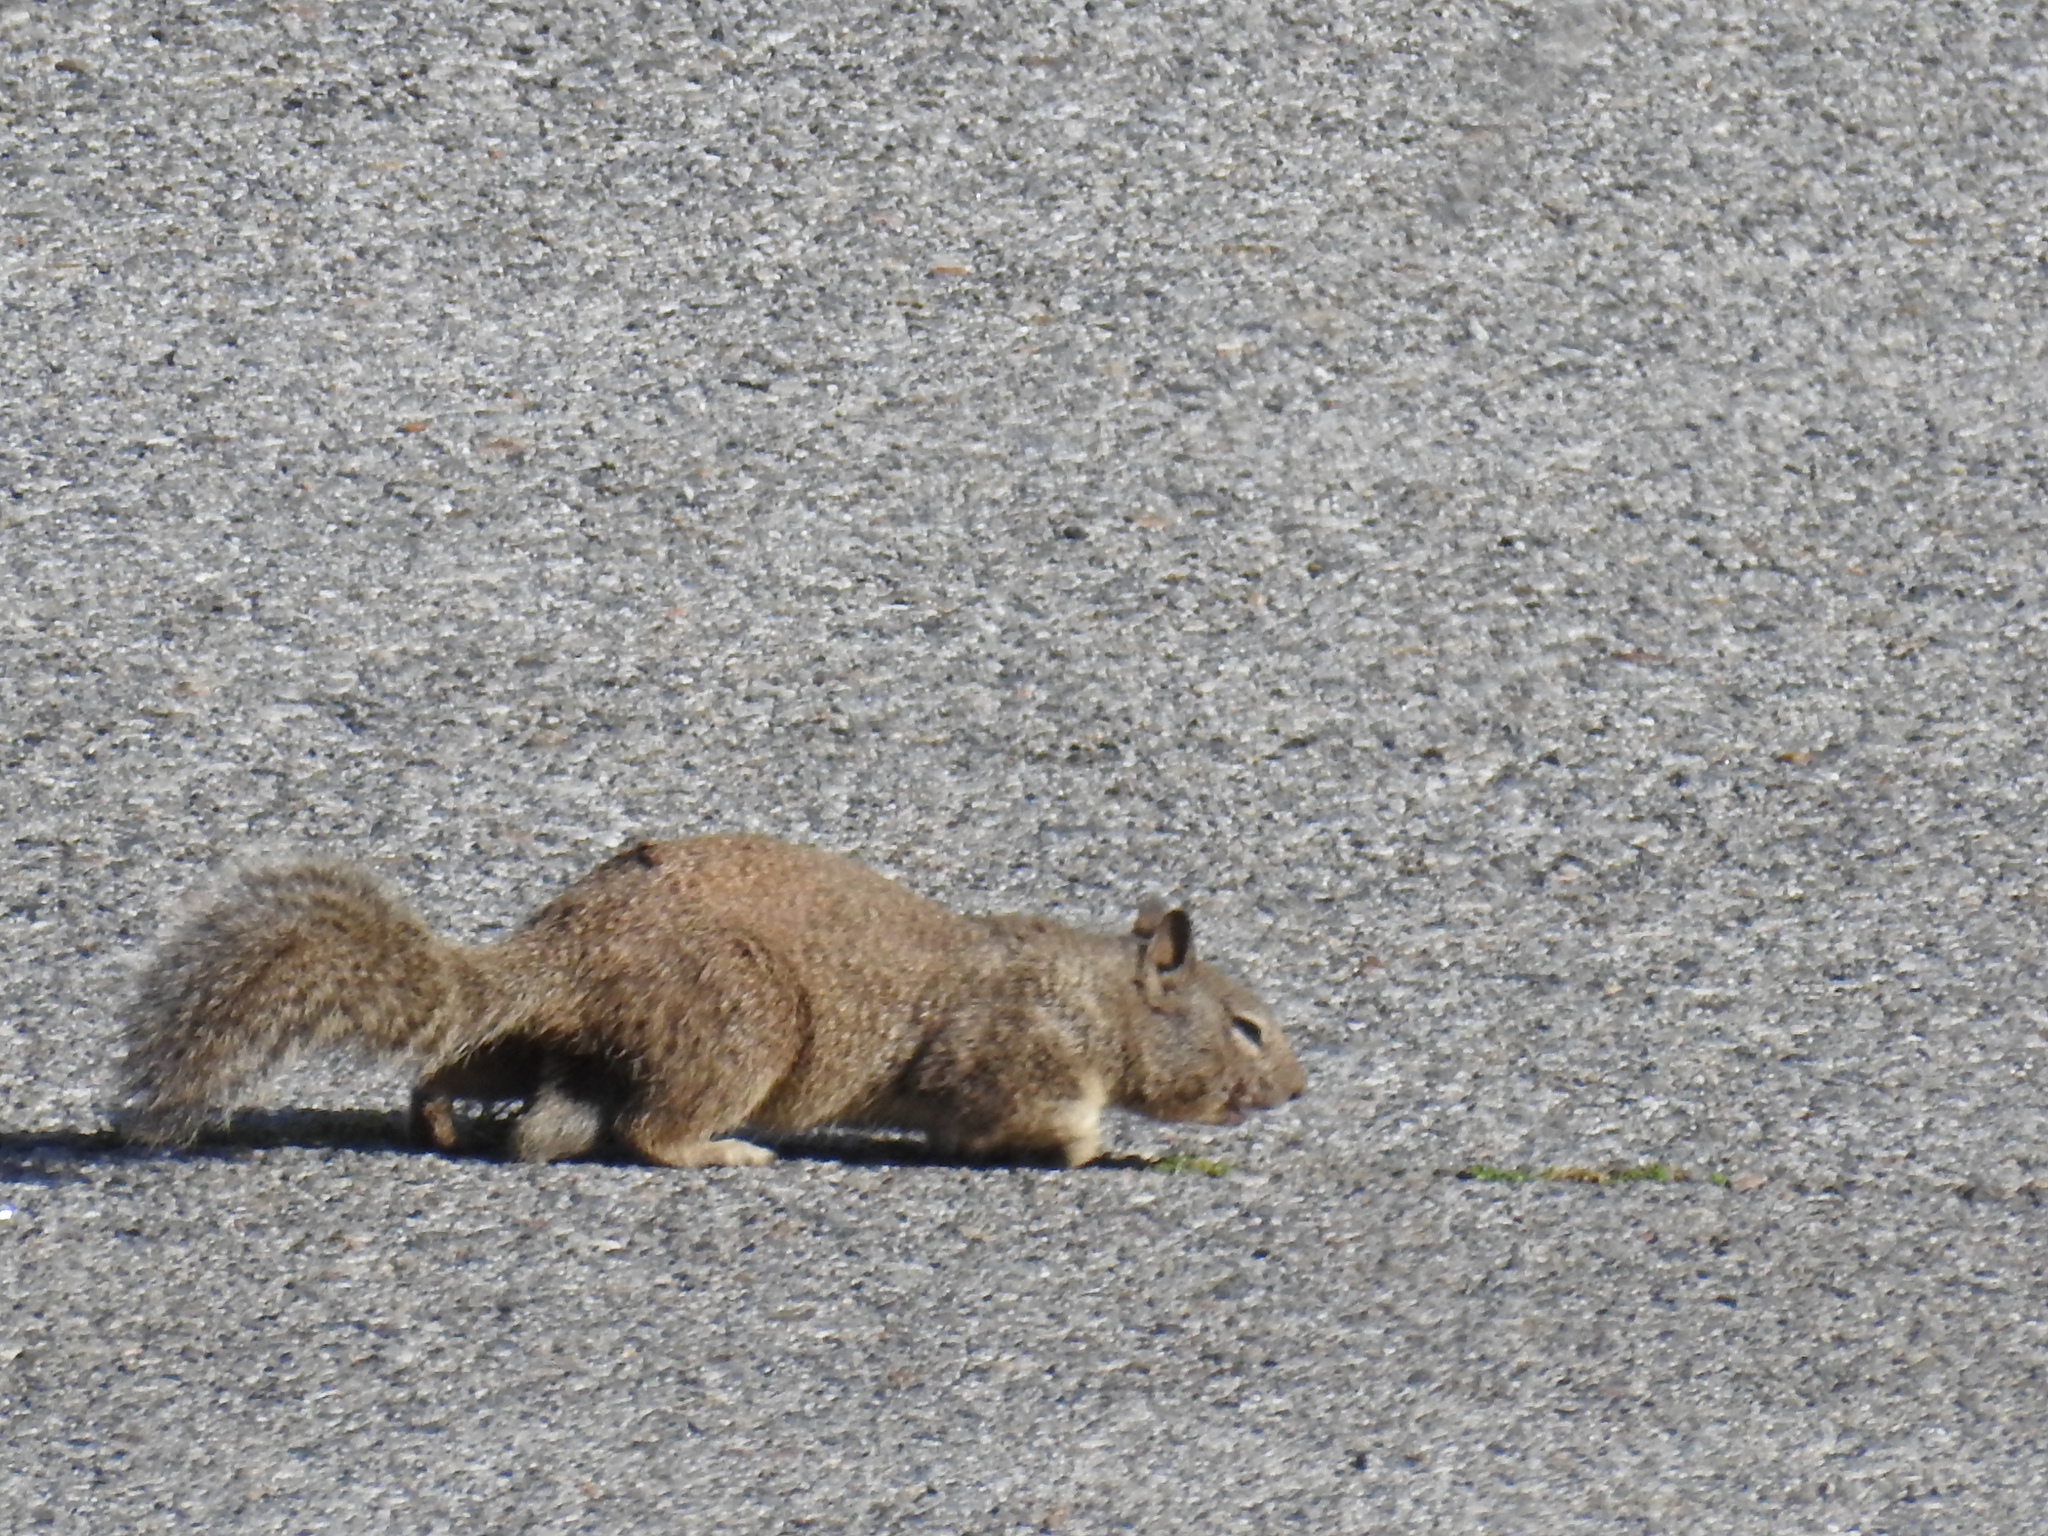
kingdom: Animalia
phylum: Chordata
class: Mammalia
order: Rodentia
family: Sciuridae
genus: Otospermophilus
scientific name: Otospermophilus beecheyi
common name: California ground squirrel
